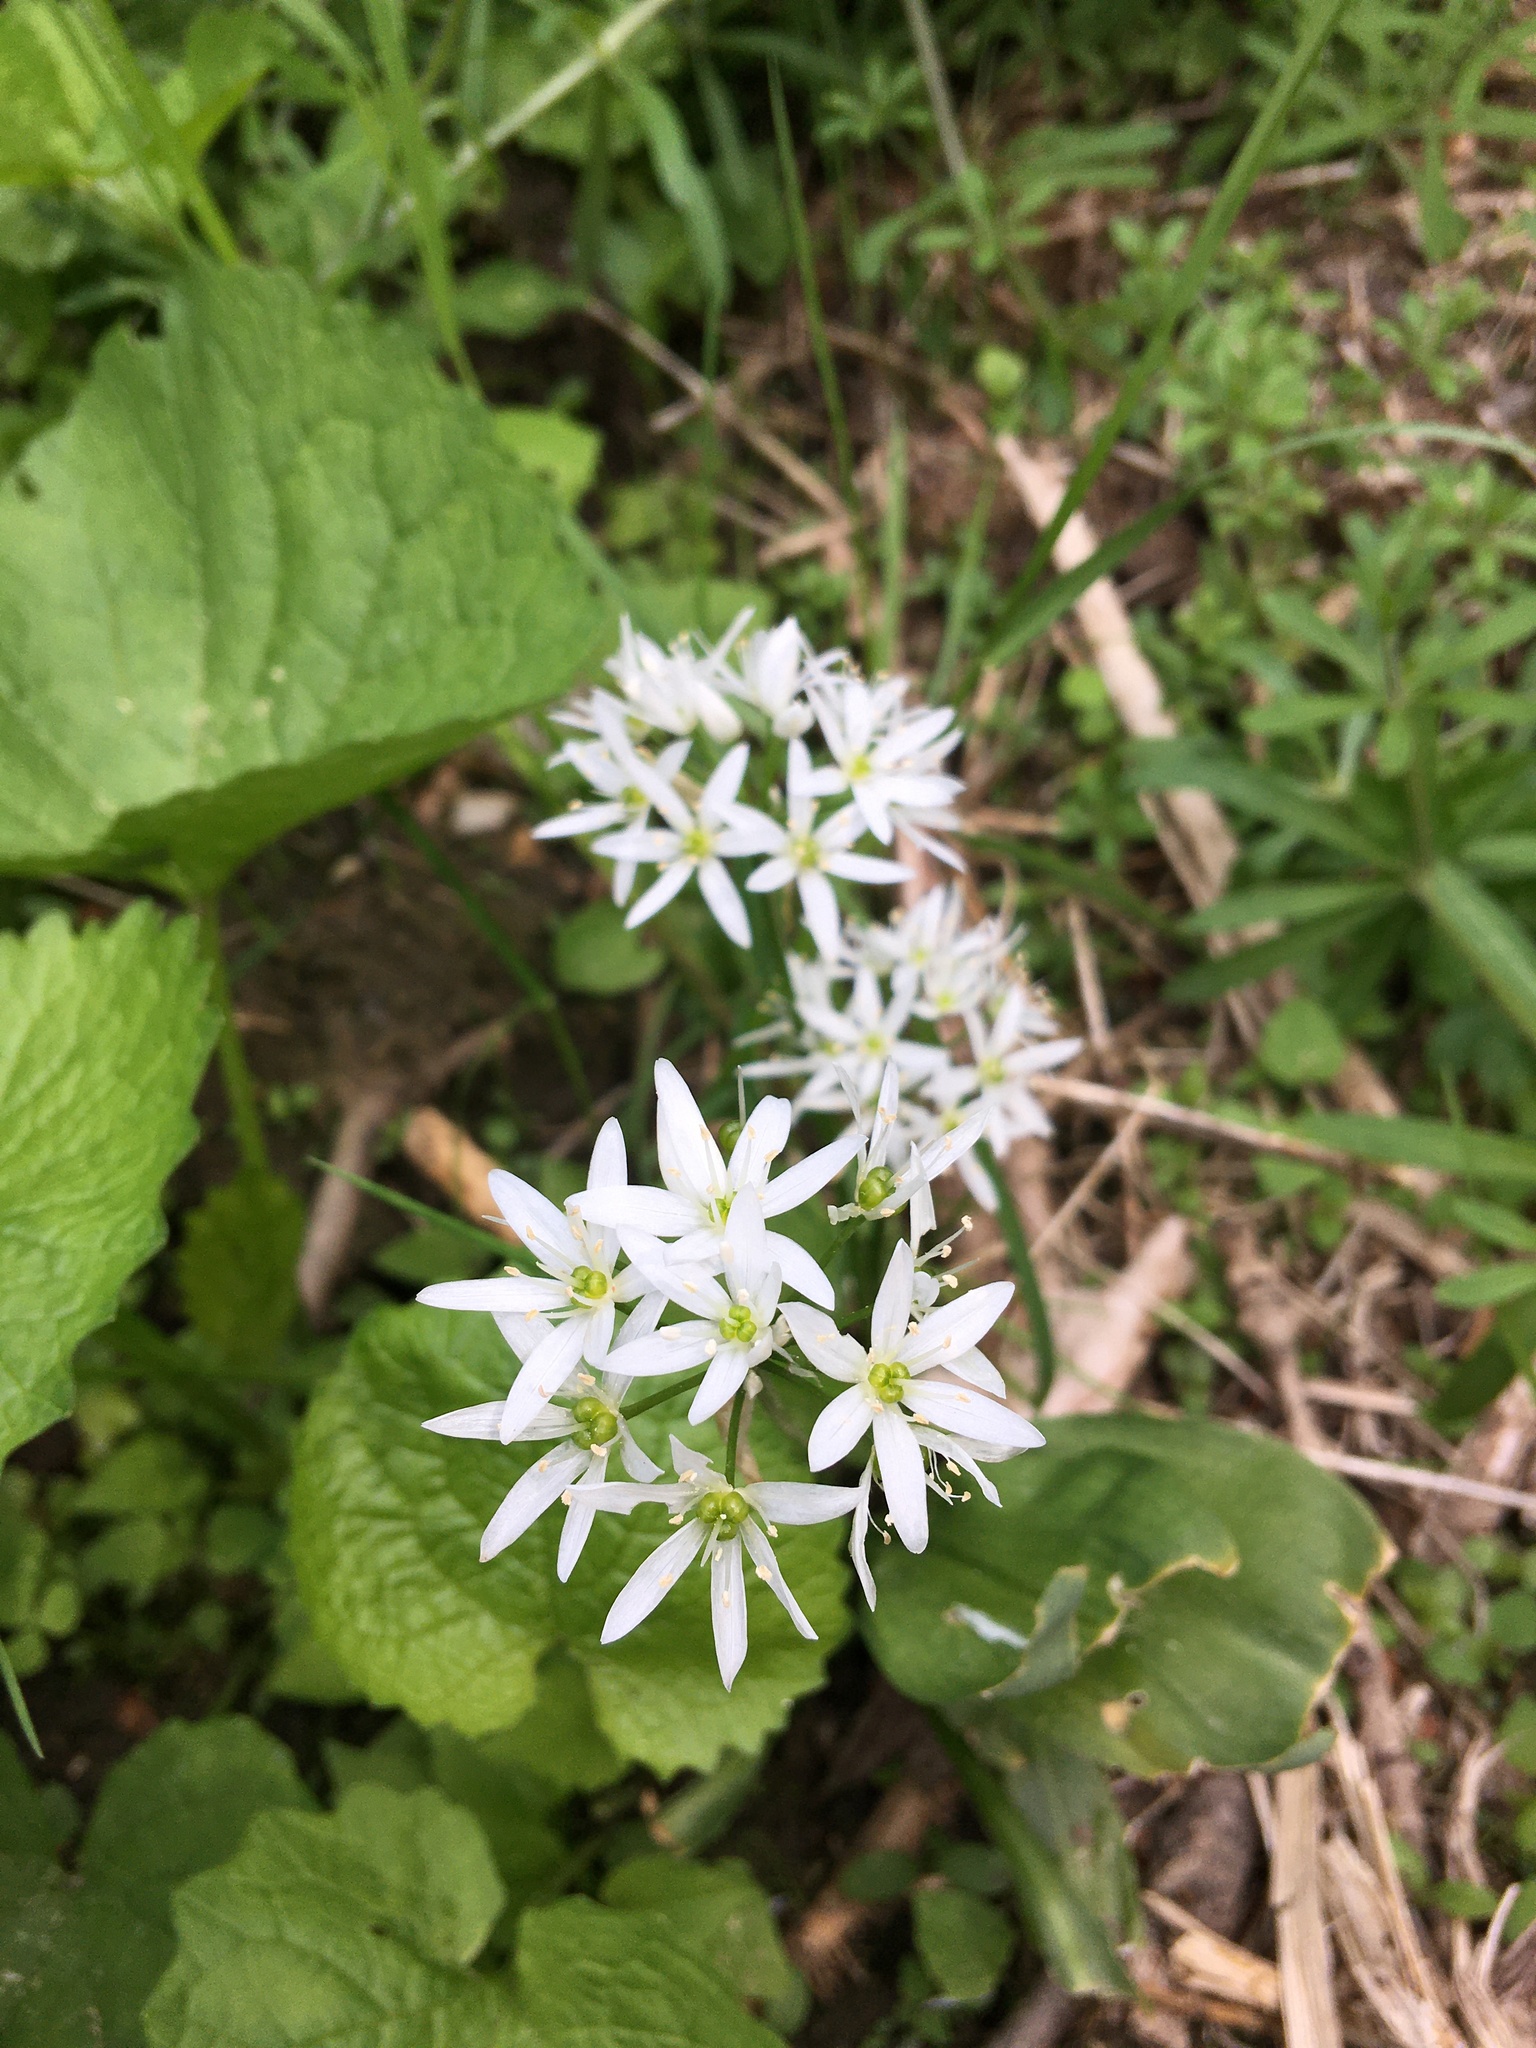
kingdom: Plantae
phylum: Tracheophyta
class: Liliopsida
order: Asparagales
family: Amaryllidaceae
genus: Allium
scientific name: Allium ursinum
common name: Ramsons
